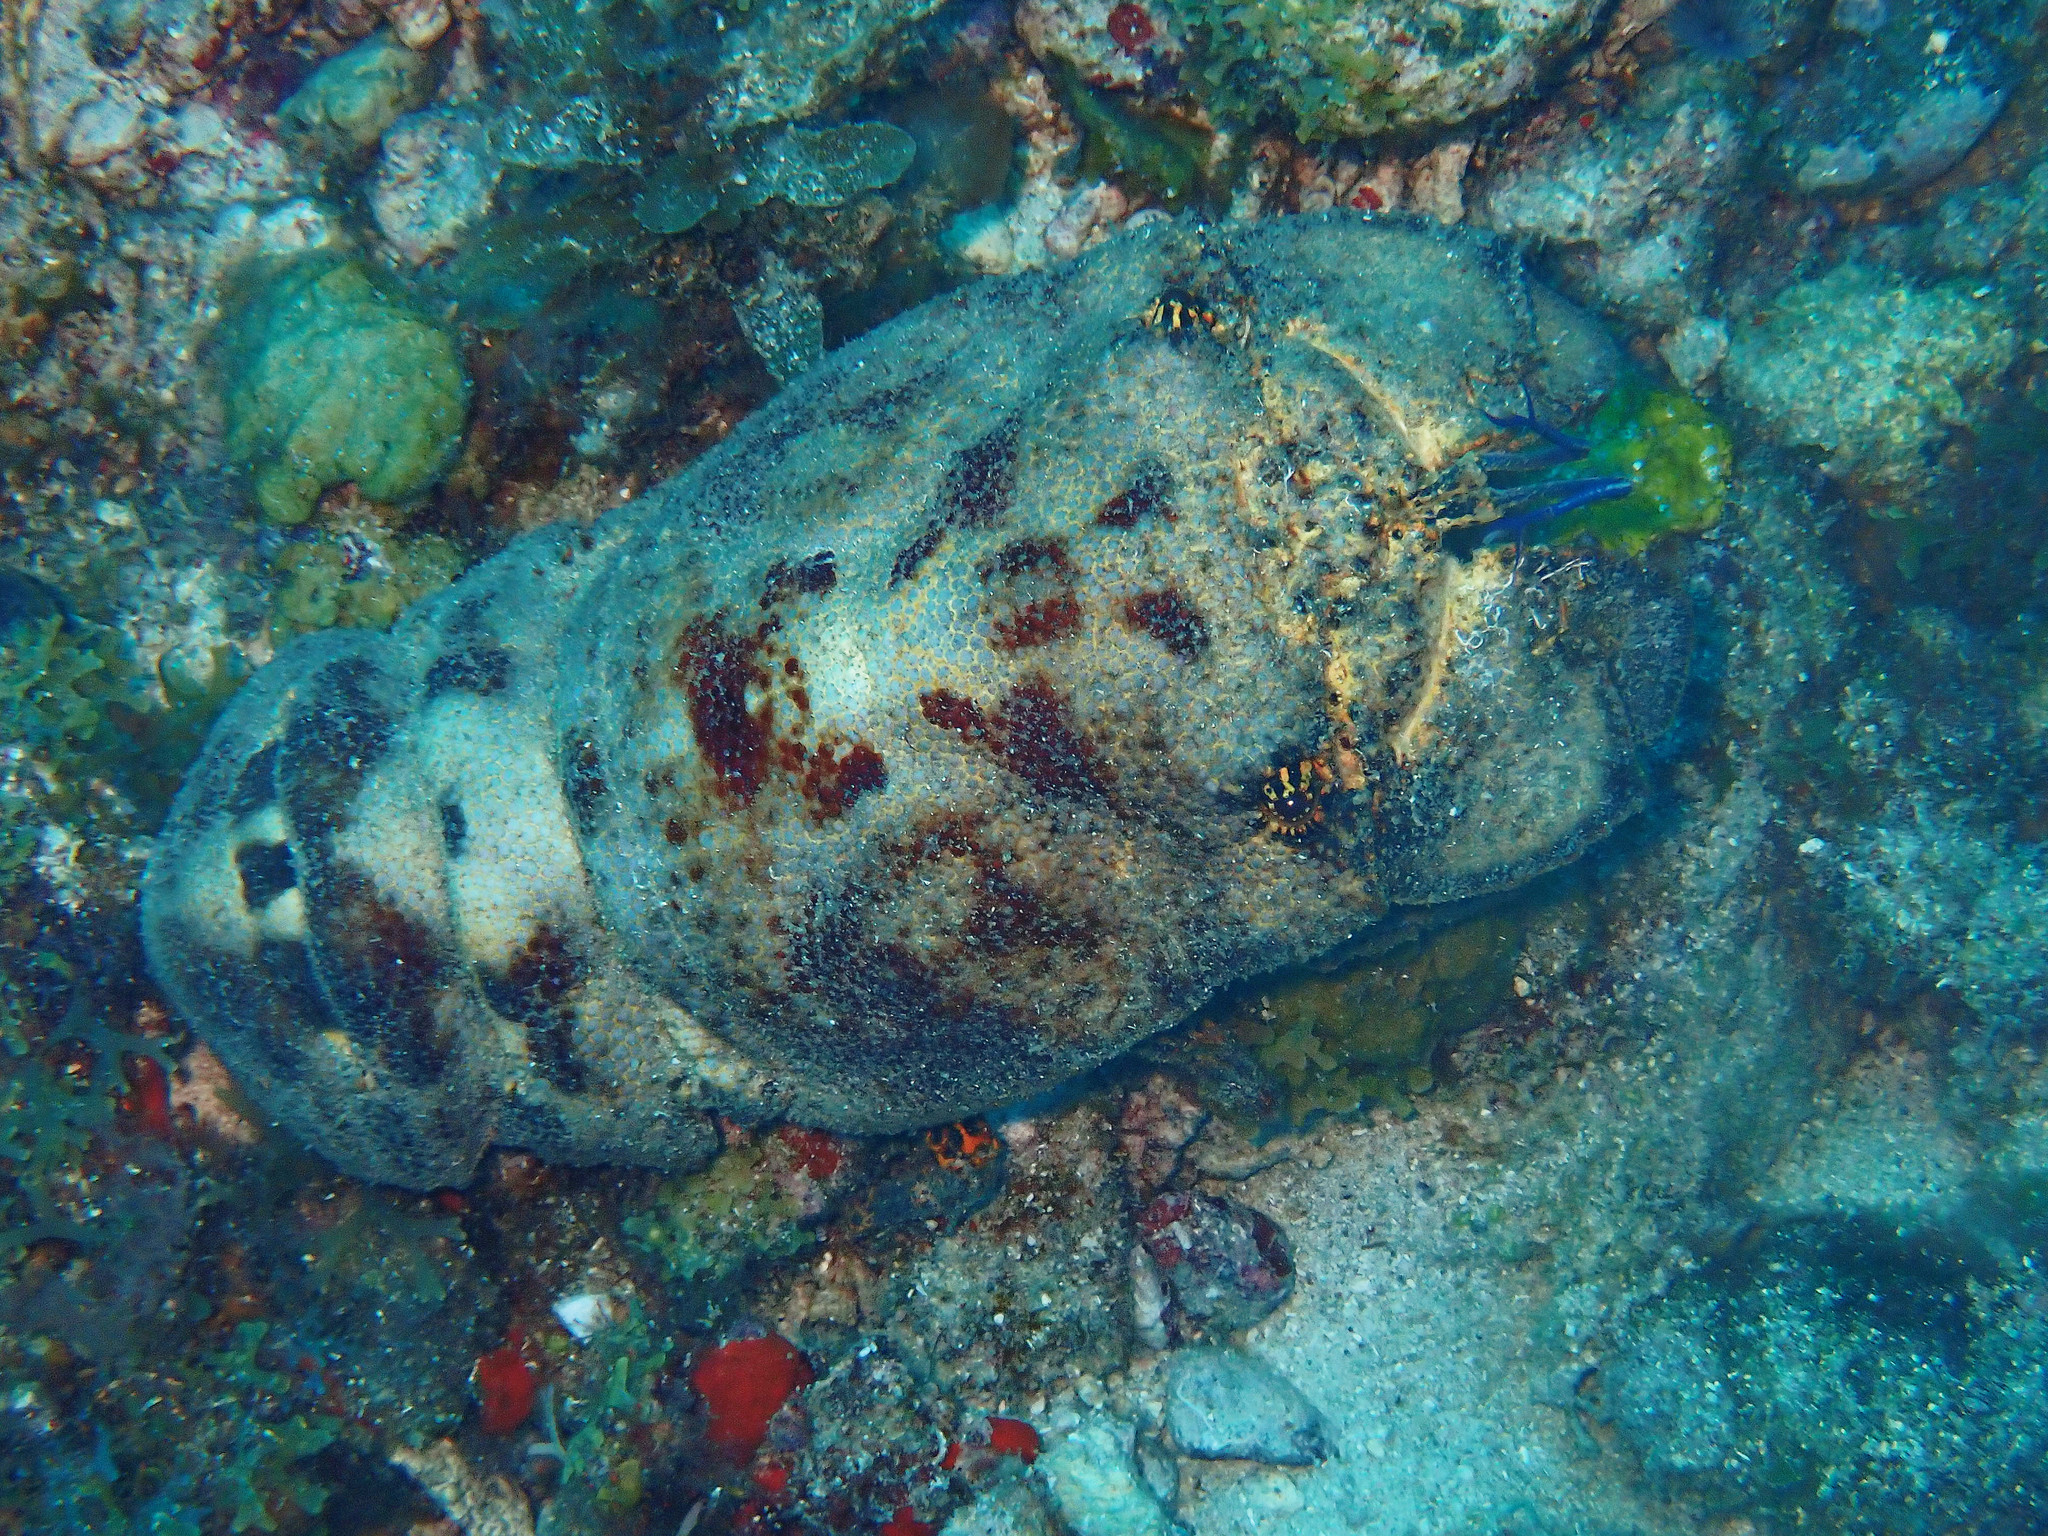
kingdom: Animalia
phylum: Arthropoda
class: Malacostraca
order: Decapoda
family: Scyllaridae
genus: Scyllarides
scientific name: Scyllarides aequinoctialis
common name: Spanish slipper lobster
